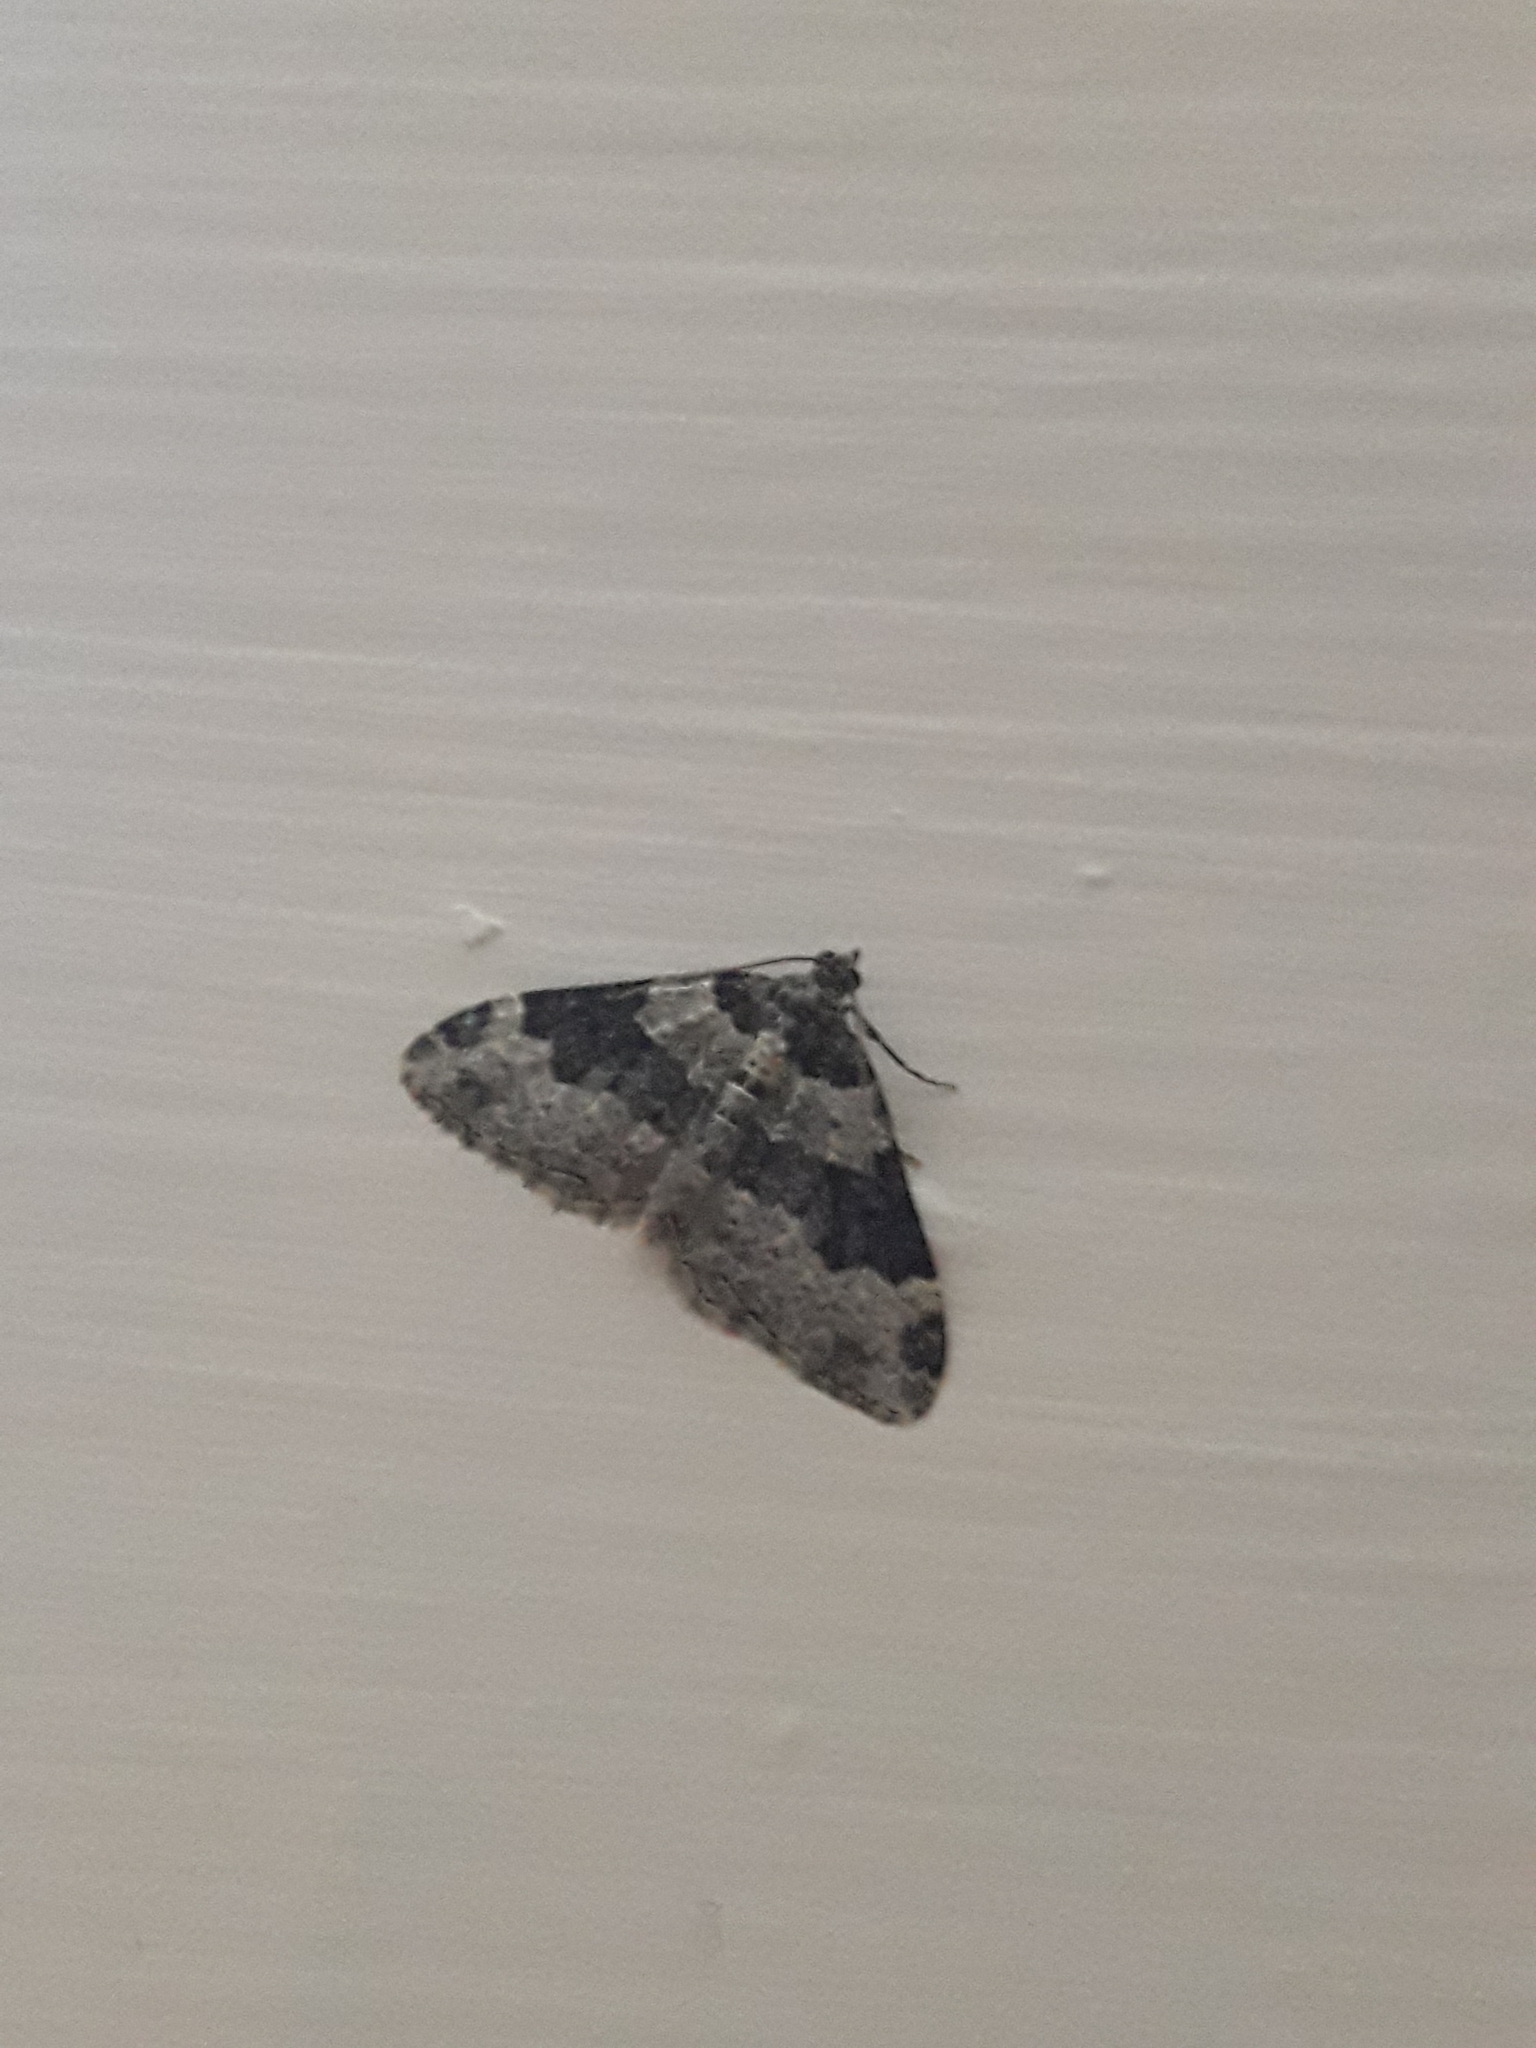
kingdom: Animalia
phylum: Arthropoda
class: Insecta
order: Lepidoptera
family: Geometridae
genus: Xanthorhoe
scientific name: Xanthorhoe fluctuata
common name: Garden carpet
